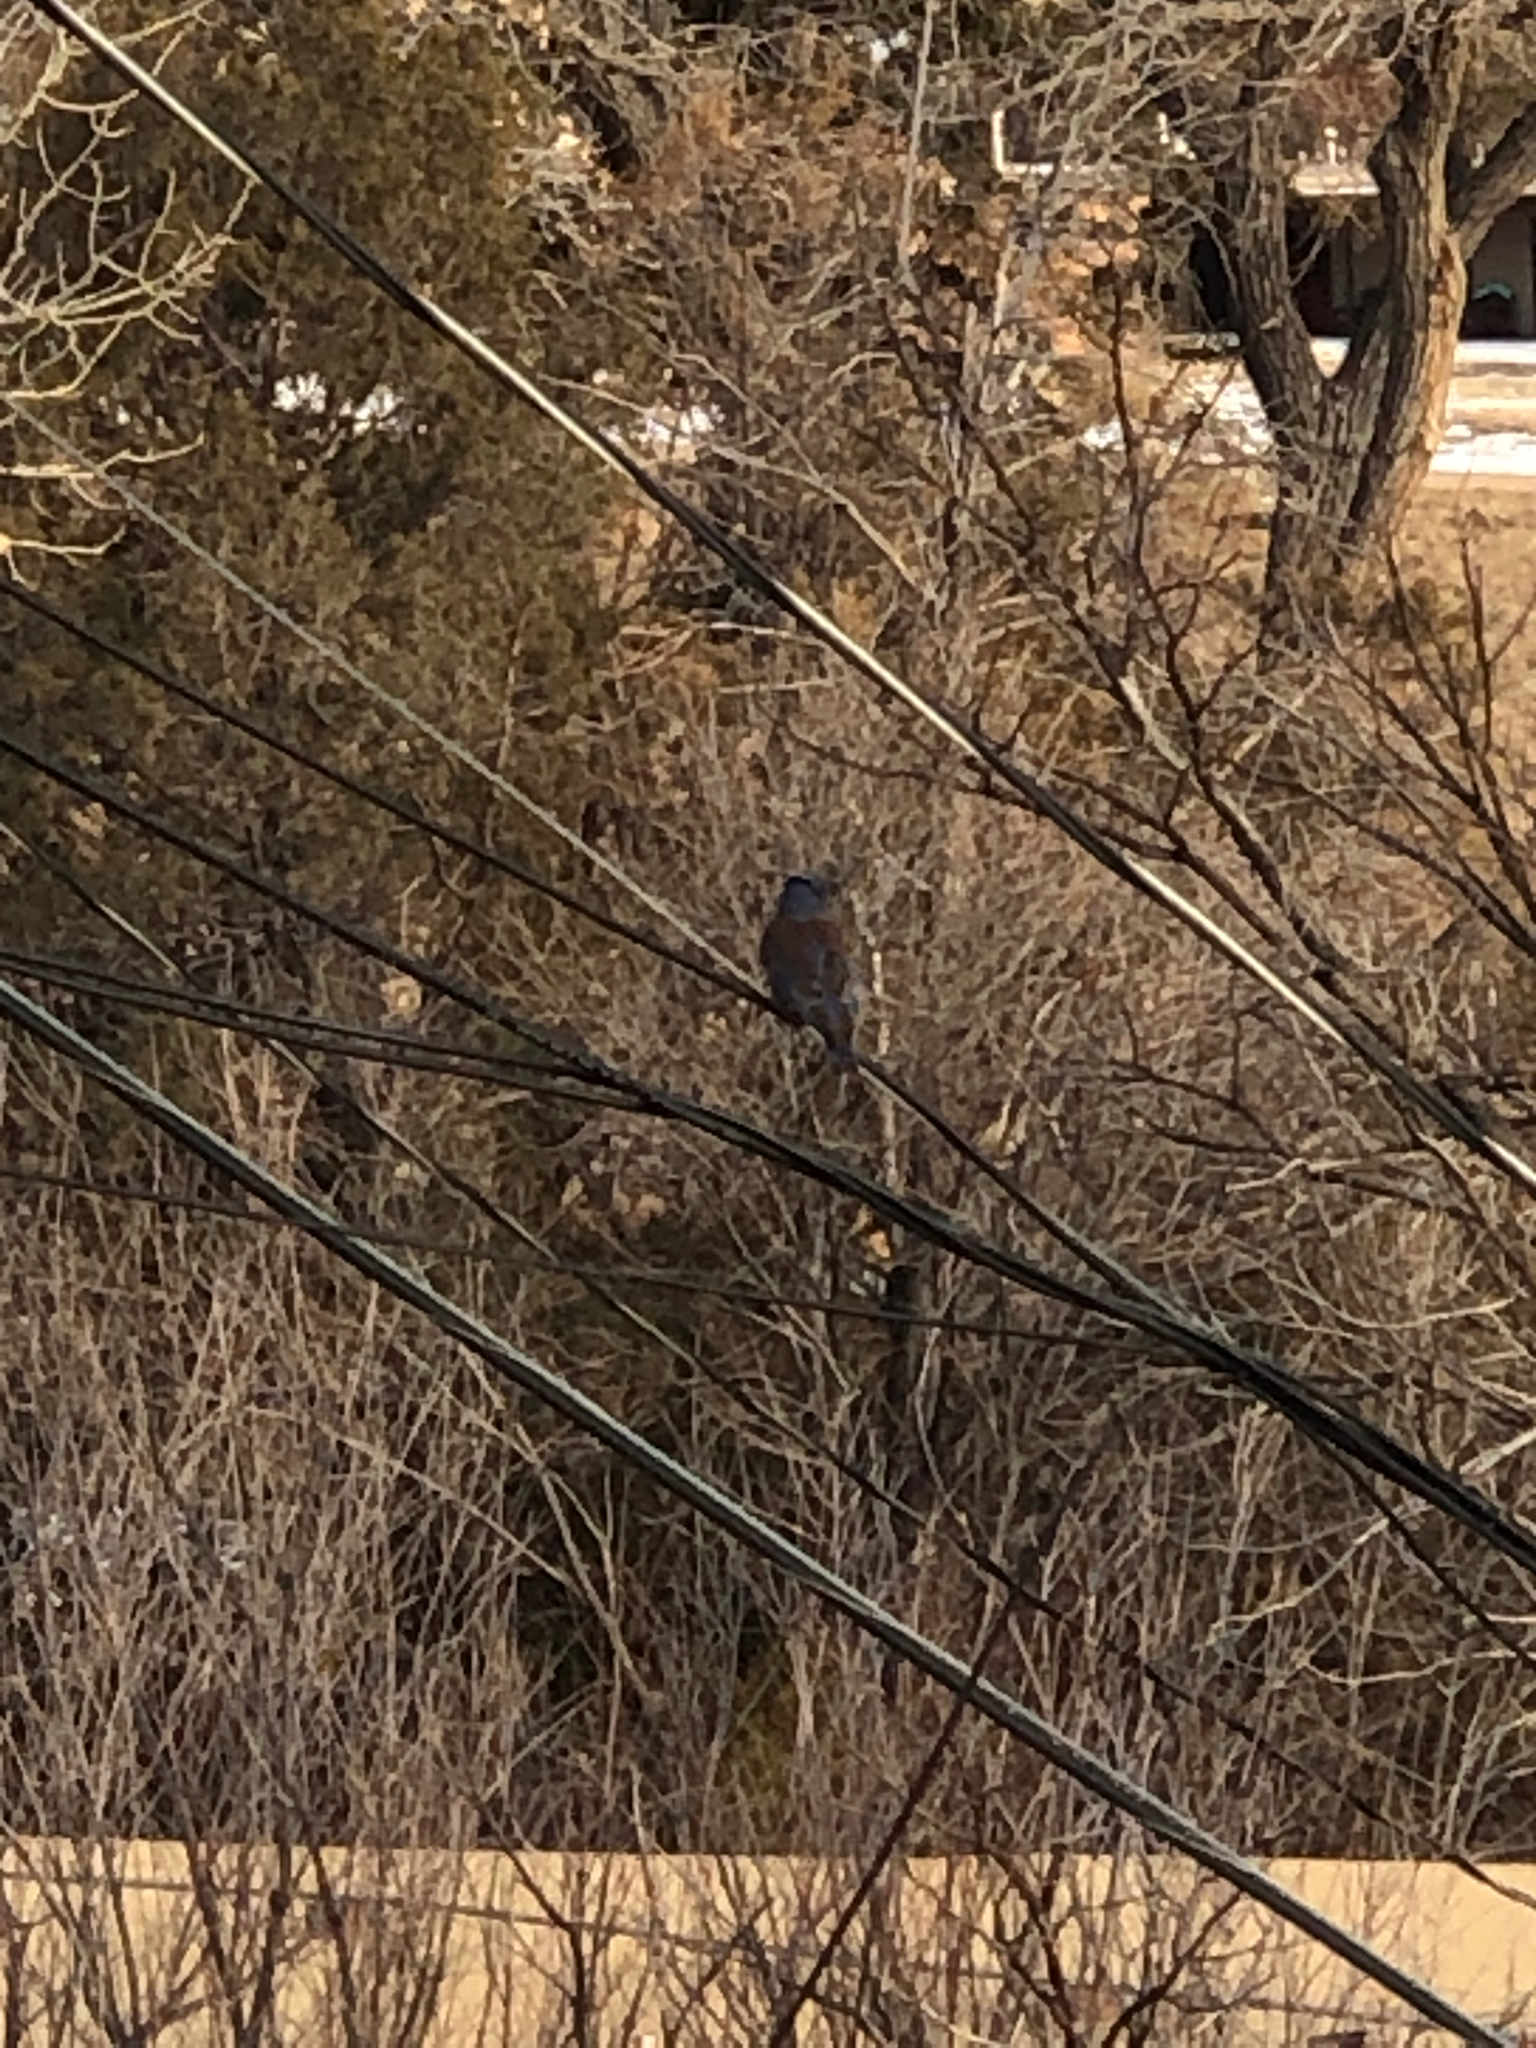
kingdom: Animalia
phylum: Chordata
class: Aves
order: Passeriformes
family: Turdidae
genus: Sialia
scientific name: Sialia mexicana
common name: Western bluebird
